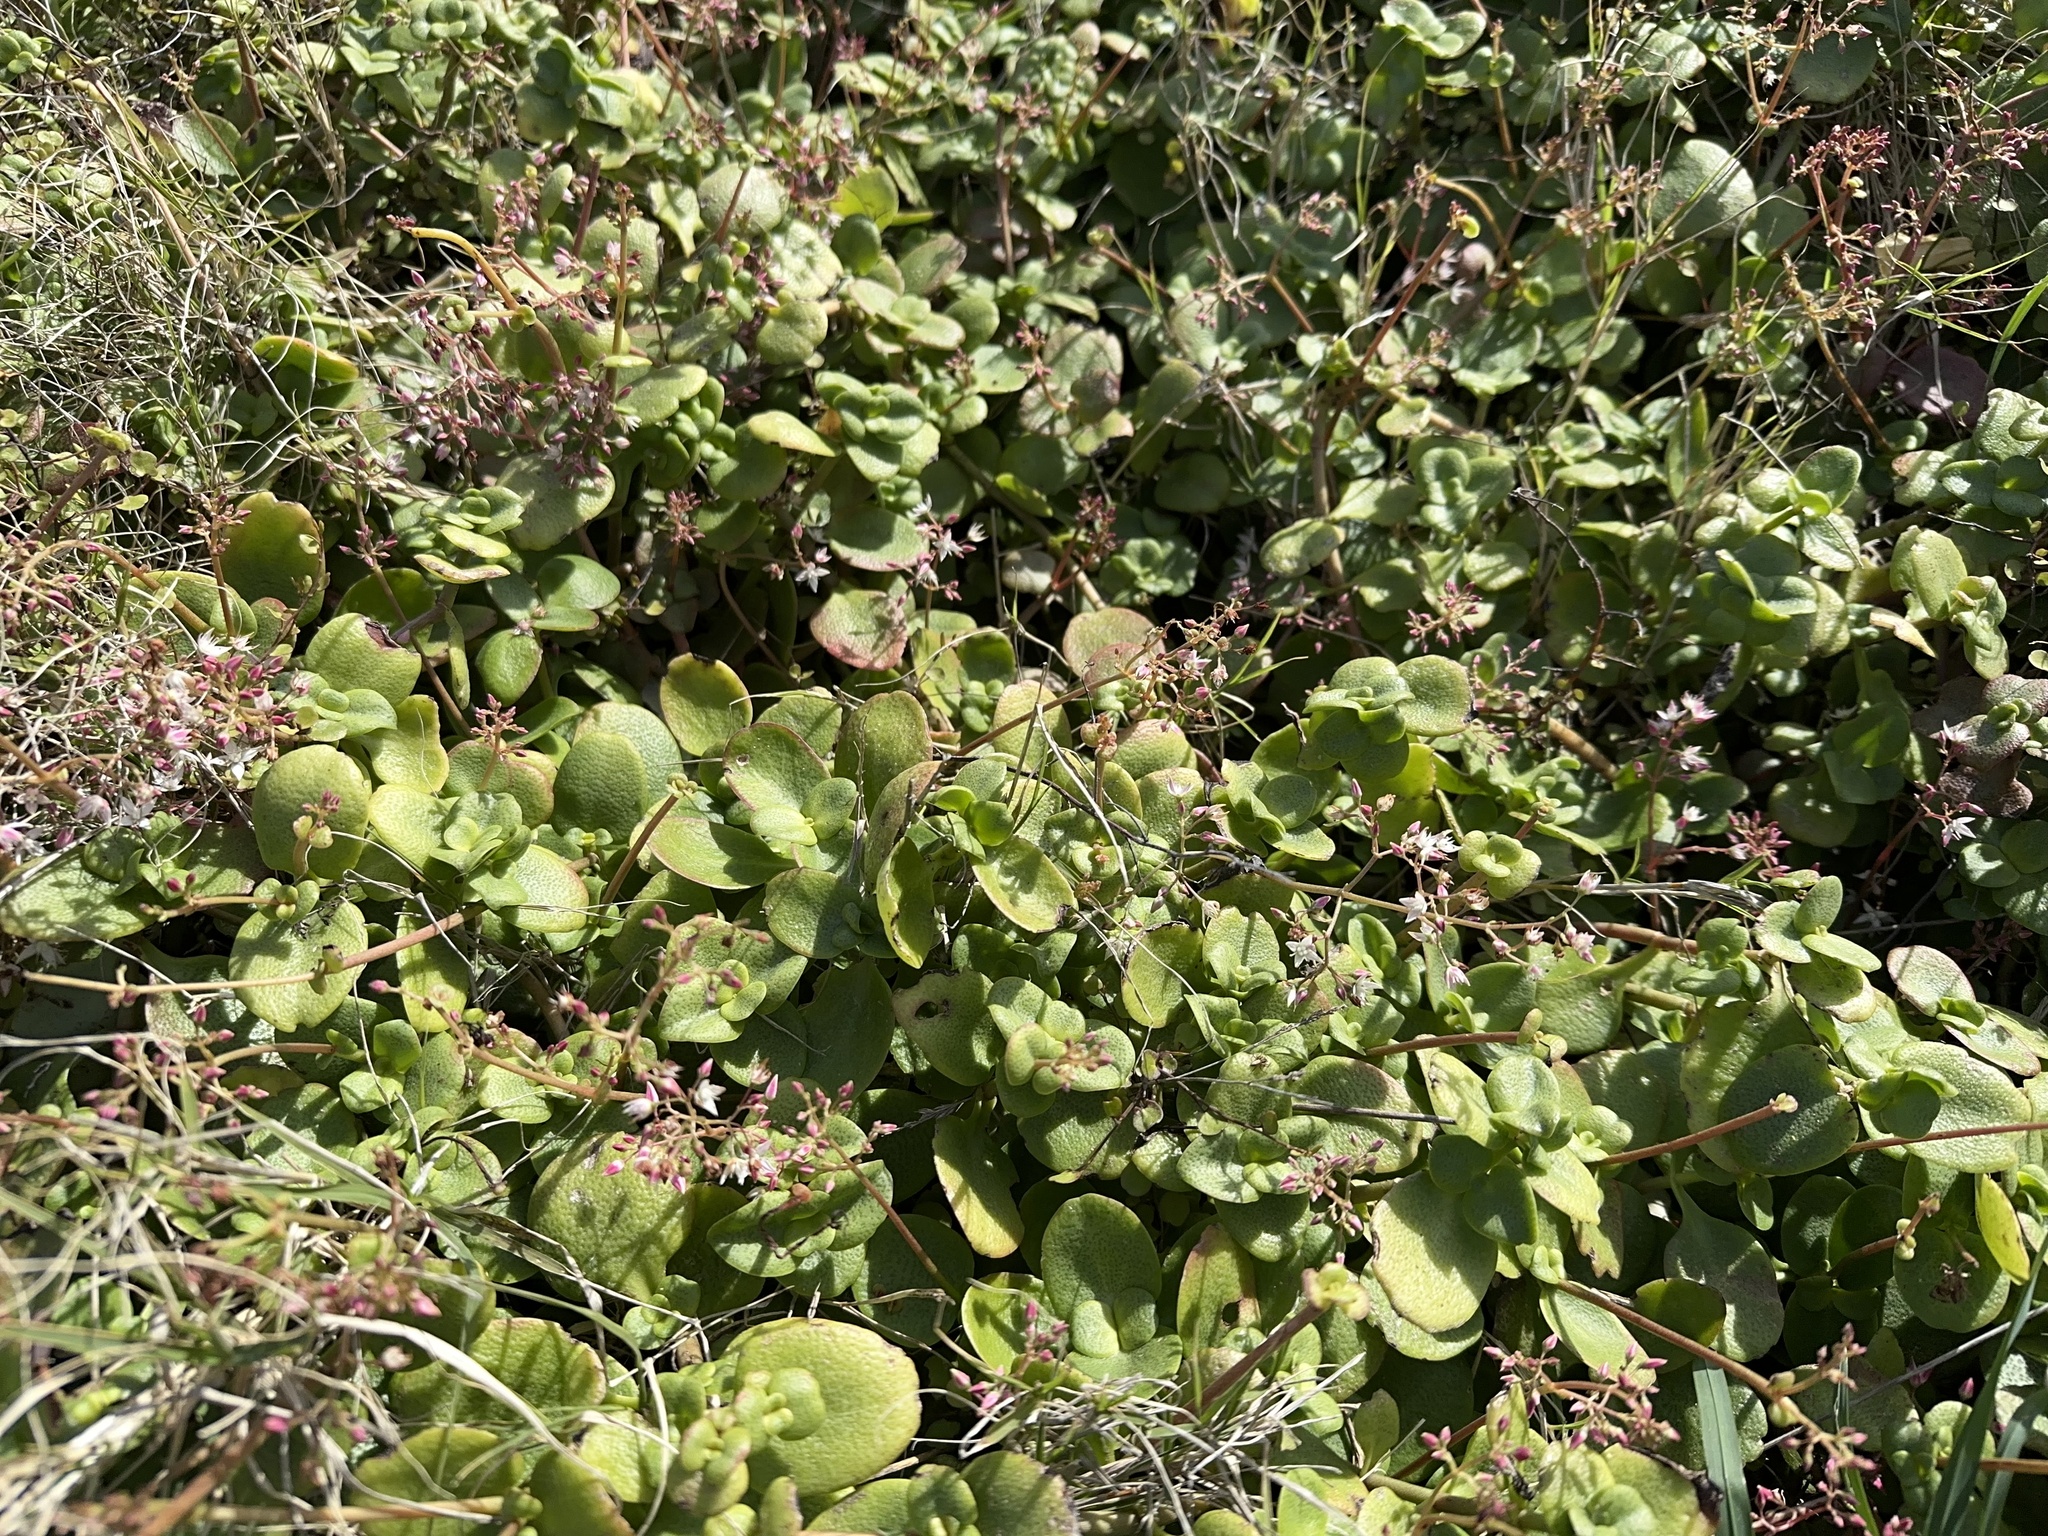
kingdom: Plantae
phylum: Tracheophyta
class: Magnoliopsida
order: Saxifragales
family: Crassulaceae
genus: Crassula
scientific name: Crassula multicava
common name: Cape province pygmyweed
